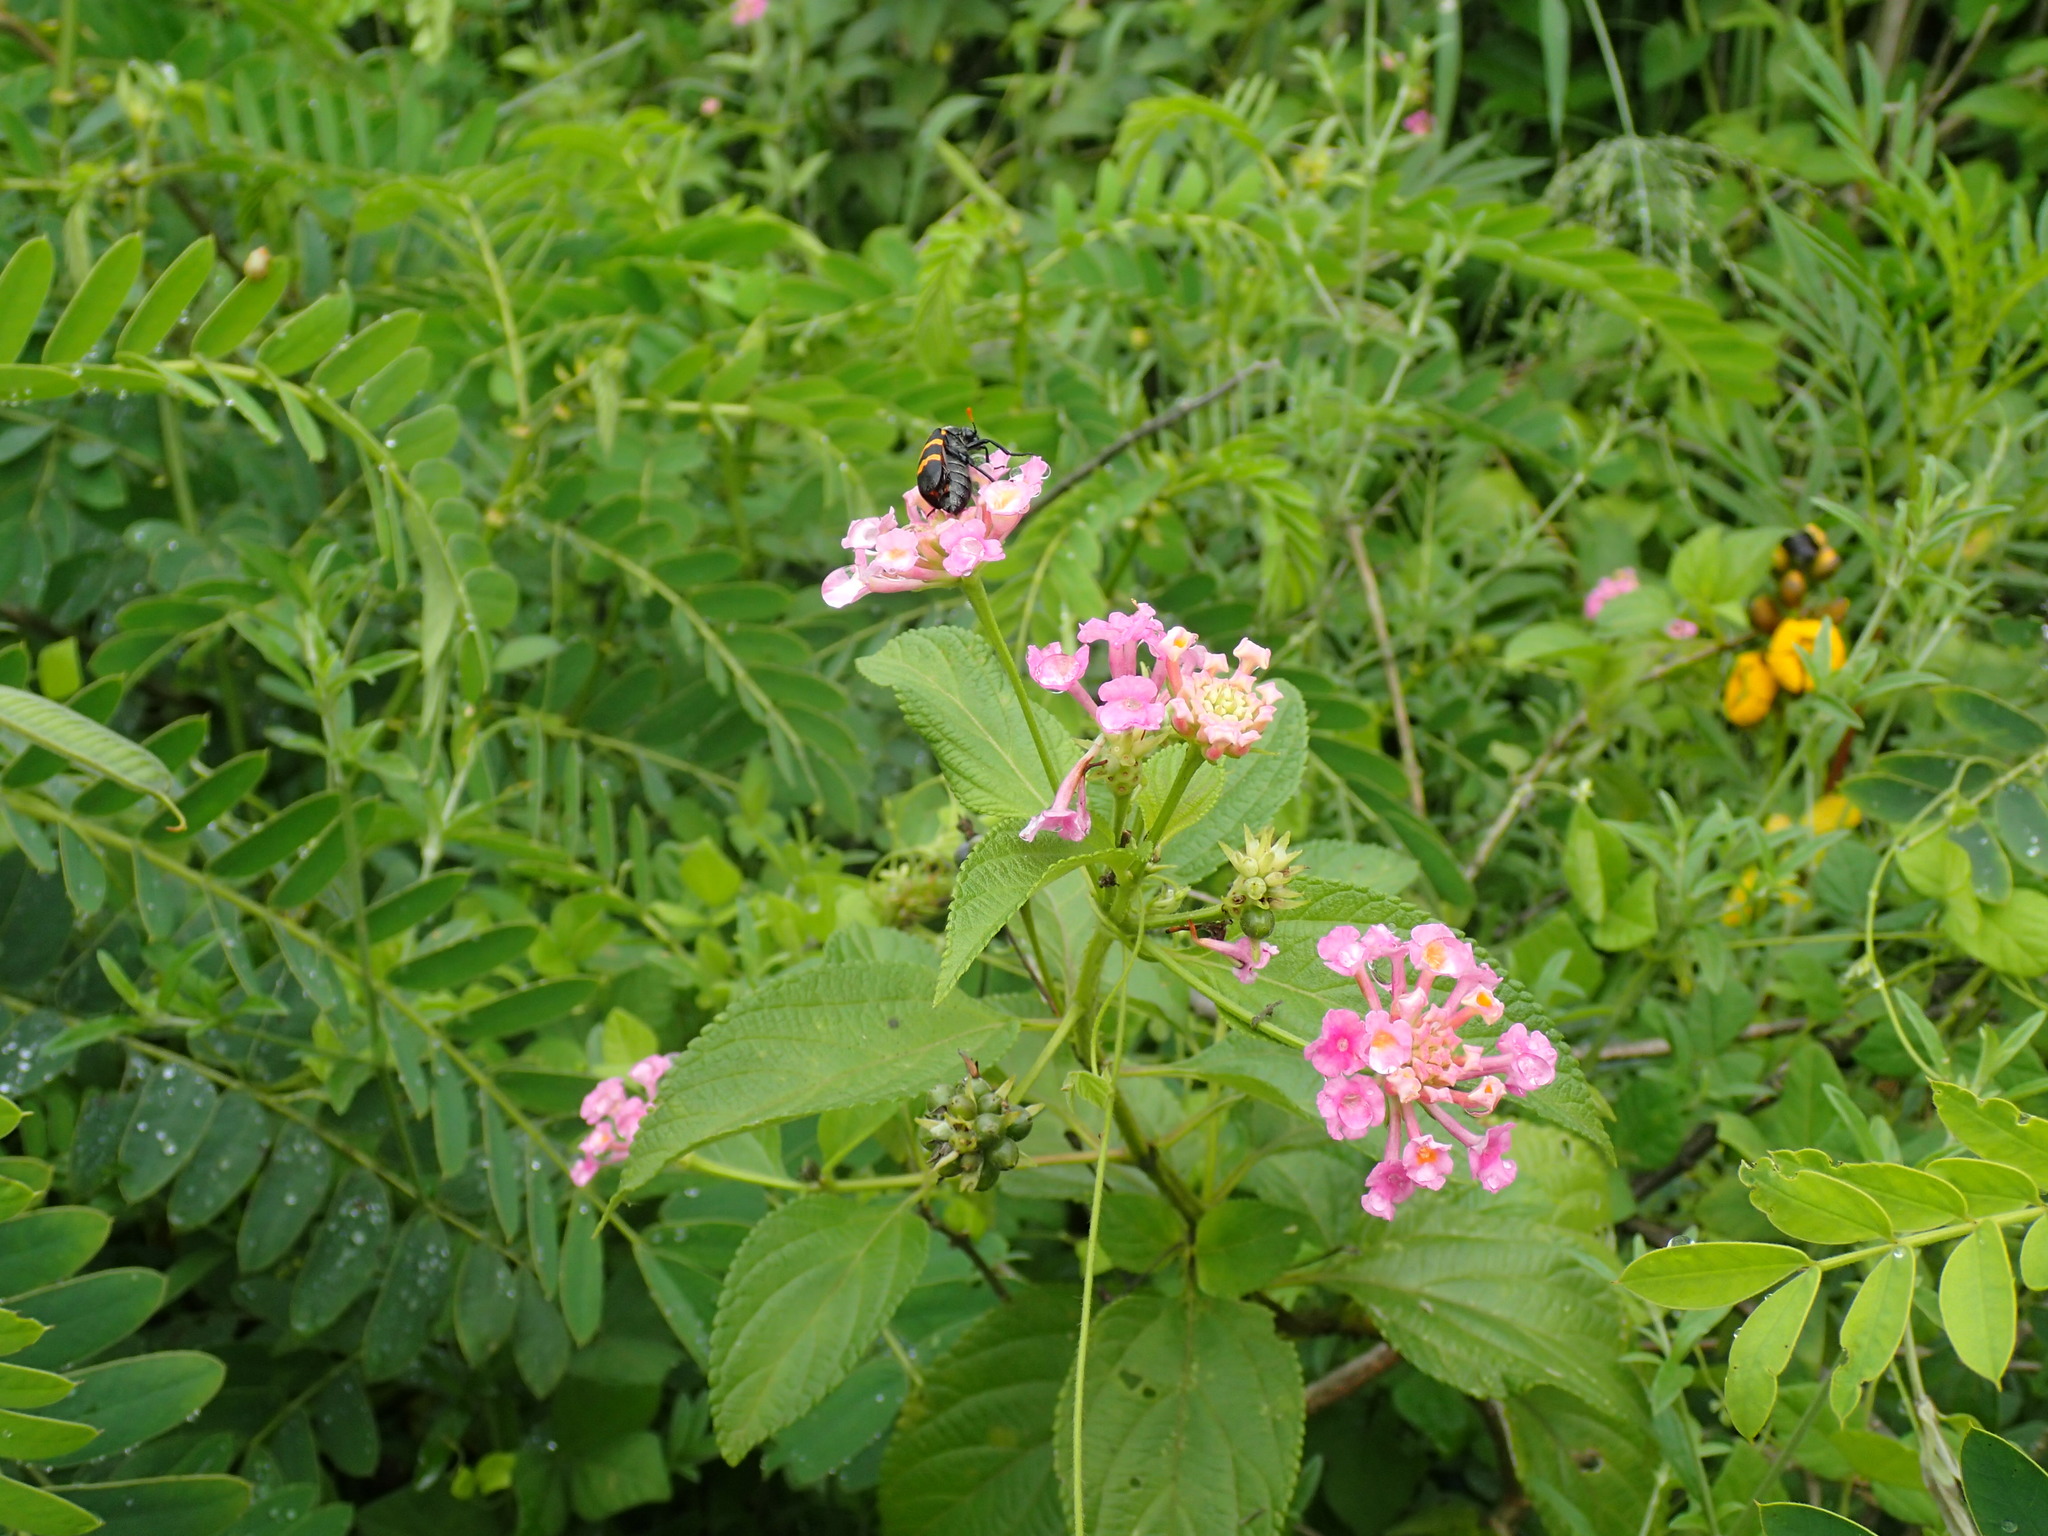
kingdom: Plantae
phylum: Tracheophyta
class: Magnoliopsida
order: Lamiales
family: Verbenaceae
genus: Lantana
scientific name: Lantana camara
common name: Lantana
